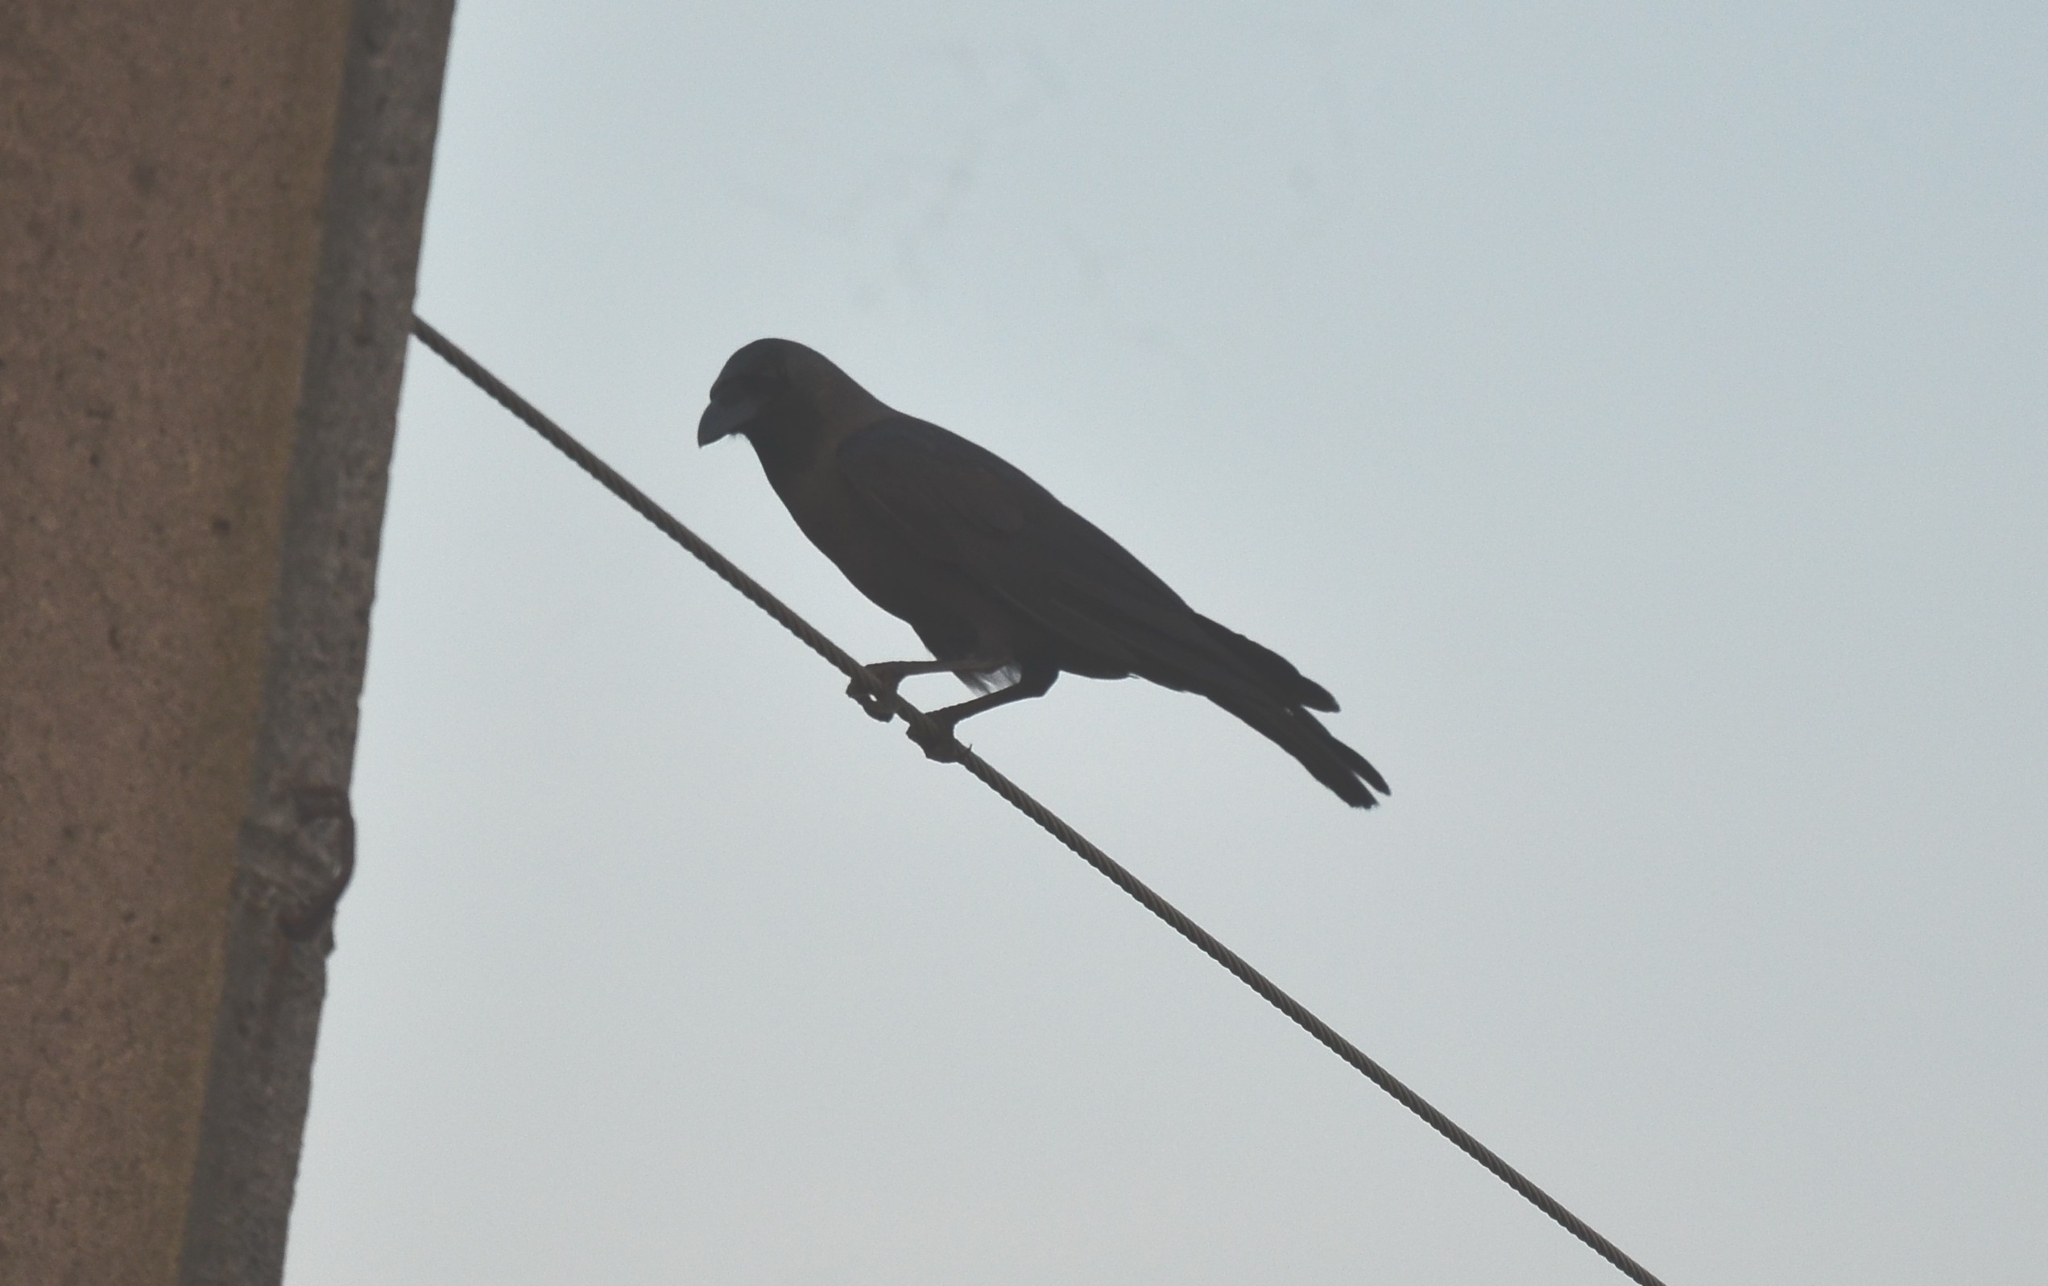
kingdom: Animalia
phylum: Chordata
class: Aves
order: Passeriformes
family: Corvidae
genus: Corvus
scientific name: Corvus splendens
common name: House crow
